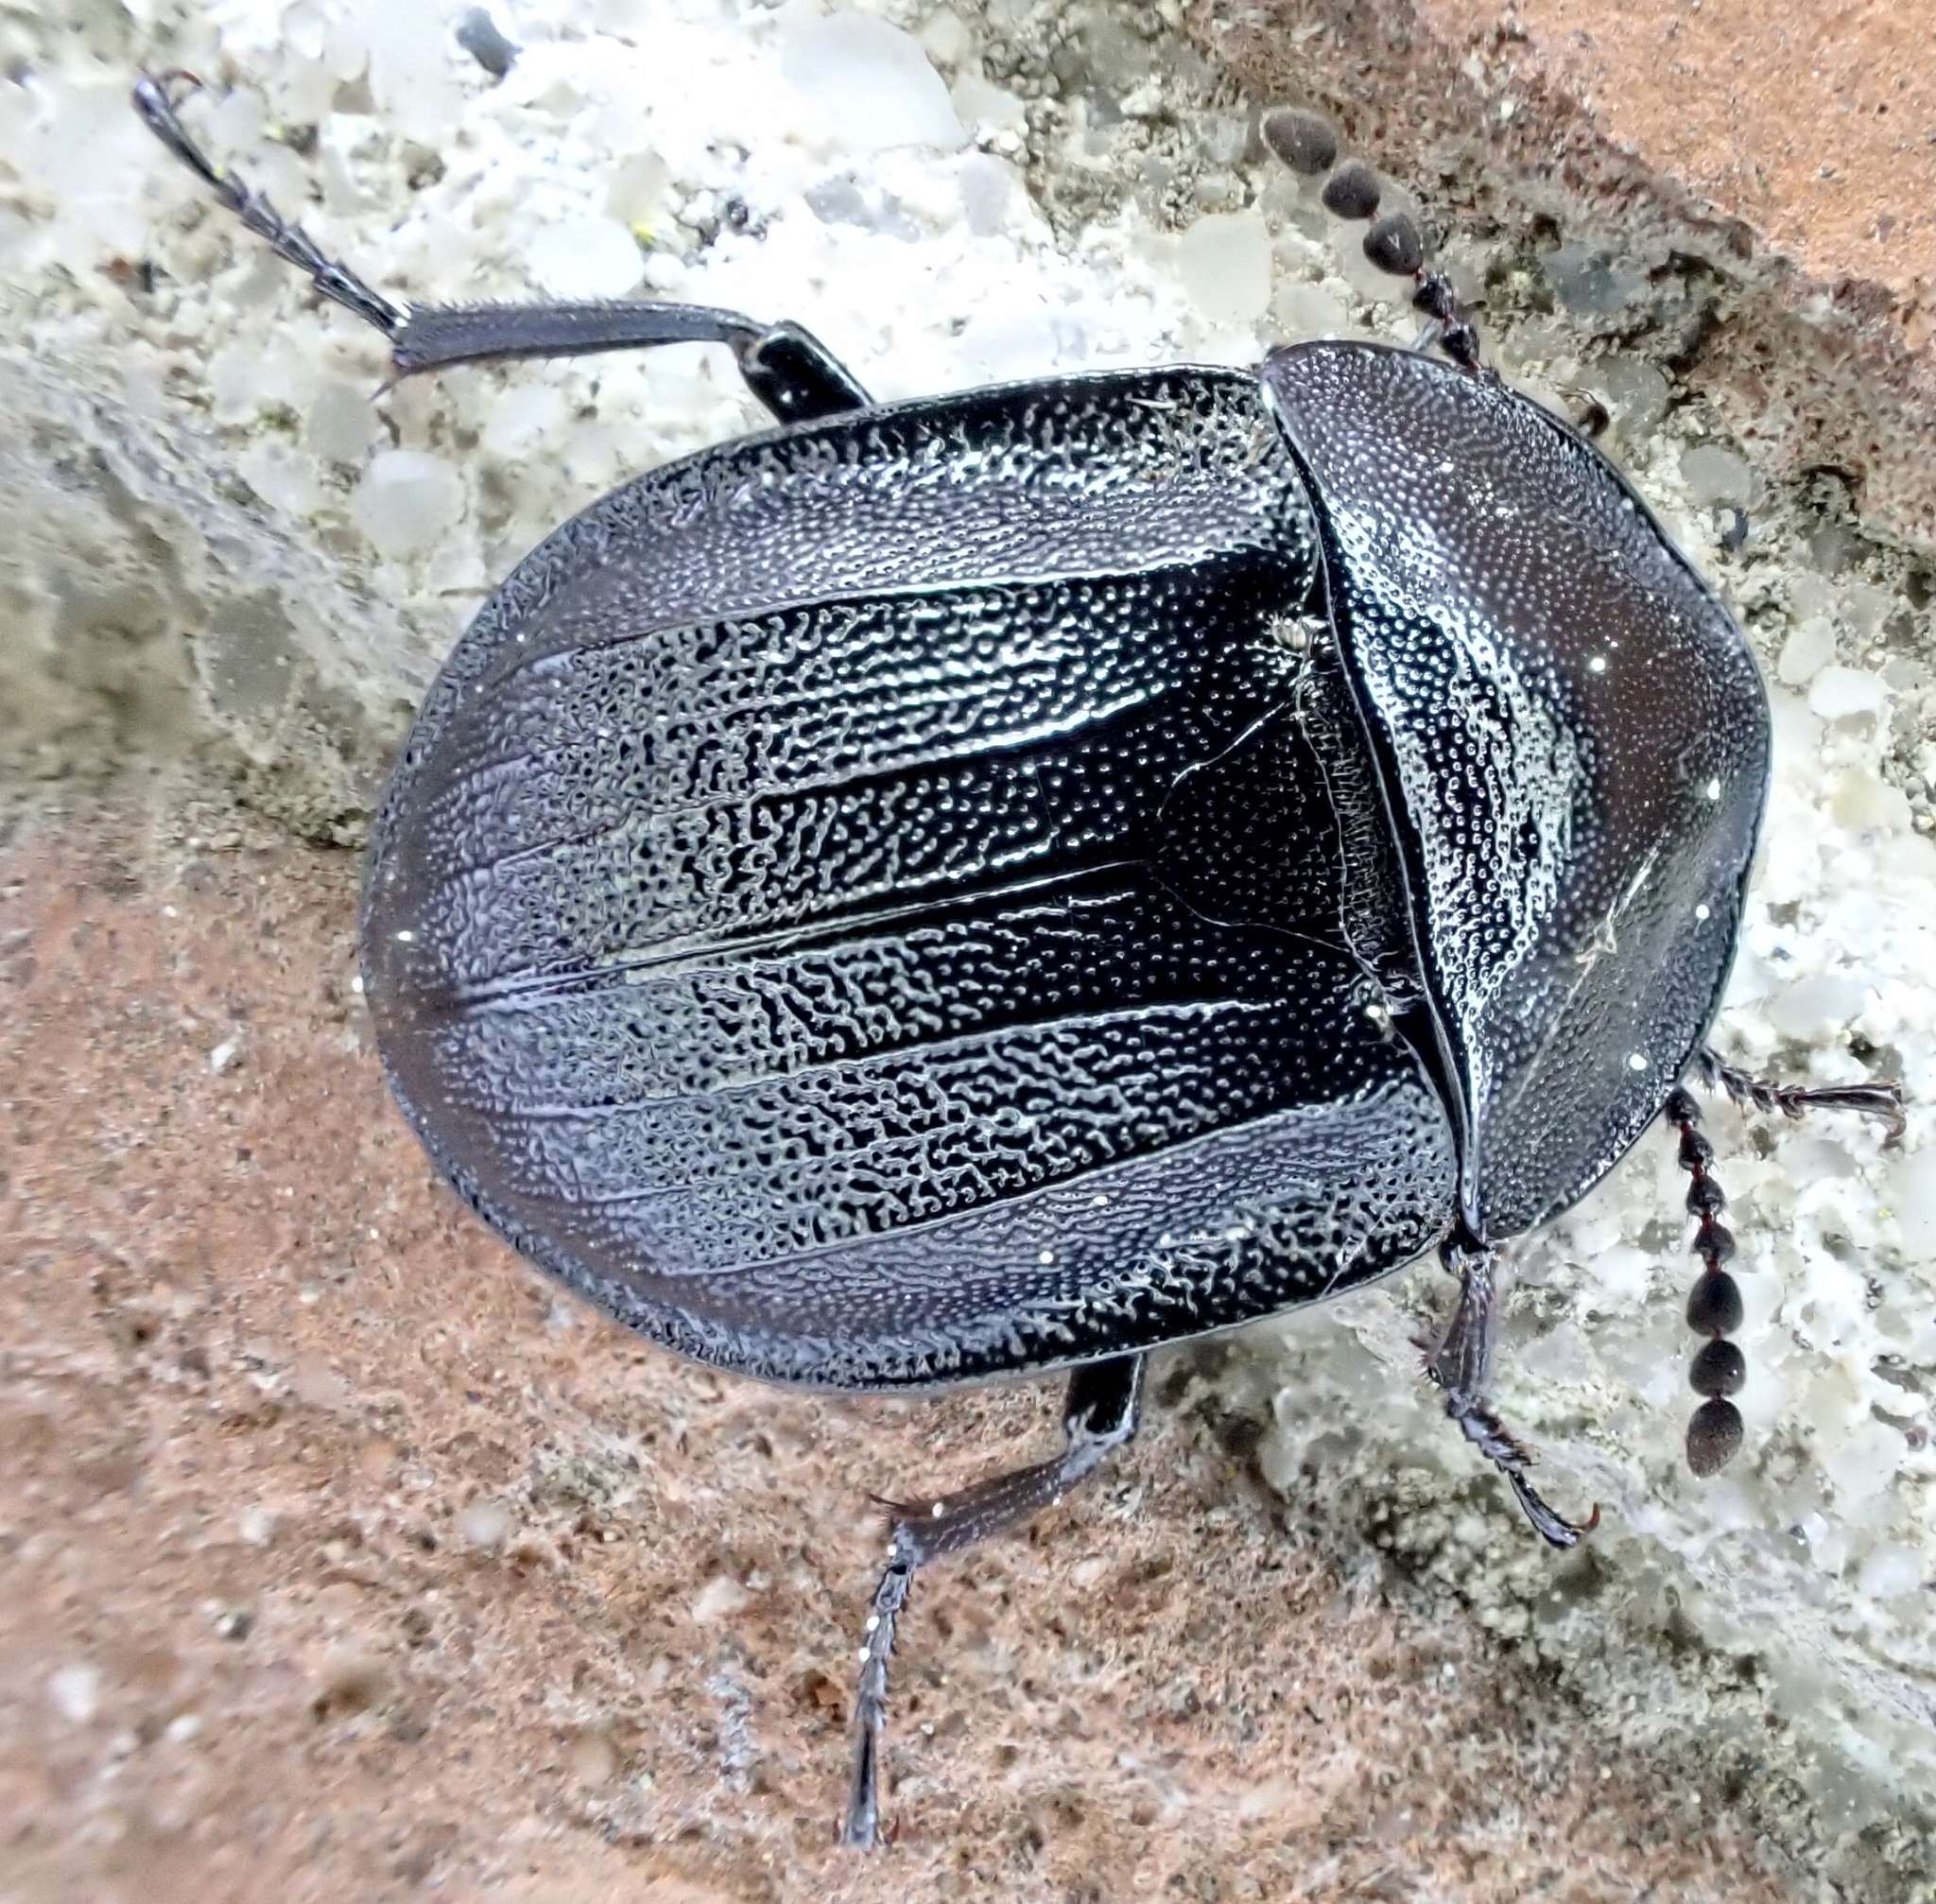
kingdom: Animalia
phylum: Arthropoda
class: Insecta
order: Coleoptera
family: Staphylinidae
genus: Silpha
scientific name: Silpha atrata
